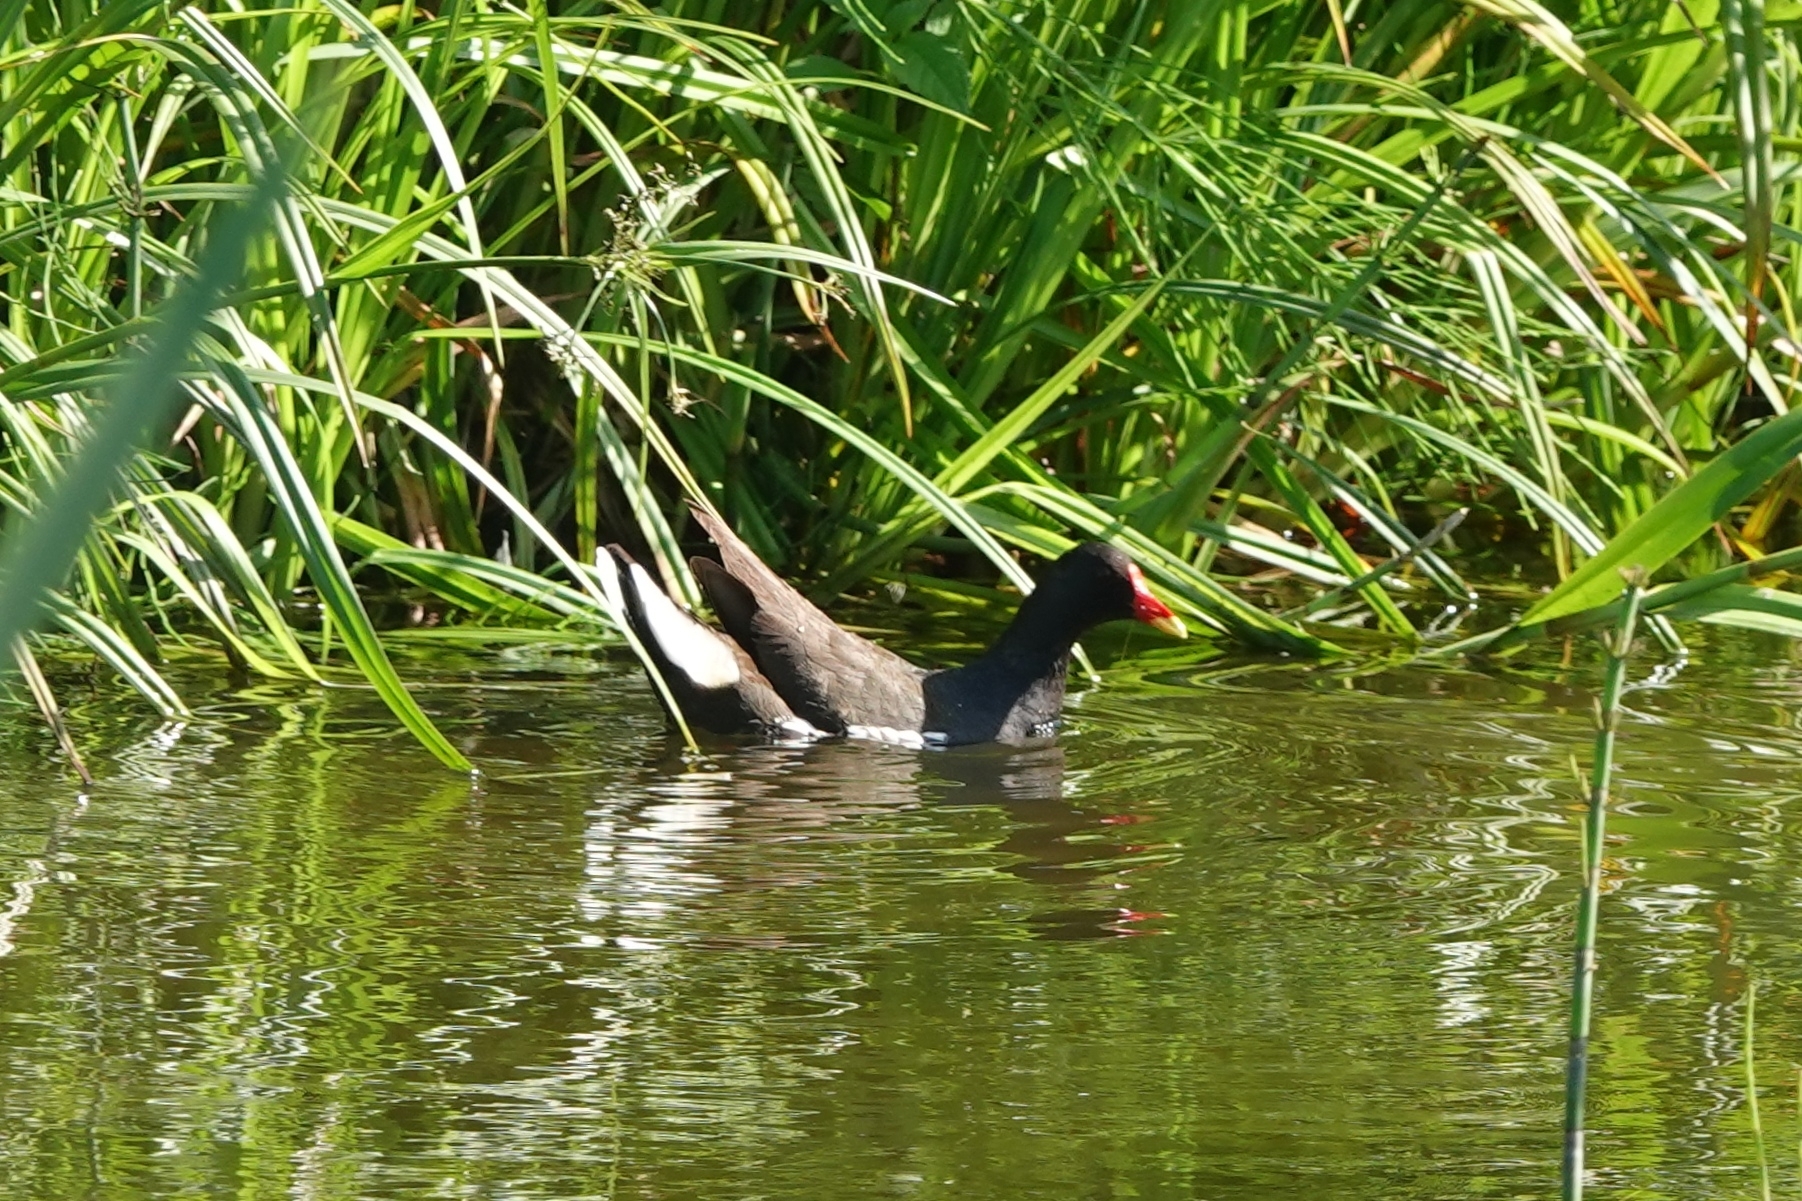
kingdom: Animalia
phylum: Chordata
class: Aves
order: Gruiformes
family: Rallidae
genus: Gallinula
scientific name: Gallinula chloropus
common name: Common moorhen
